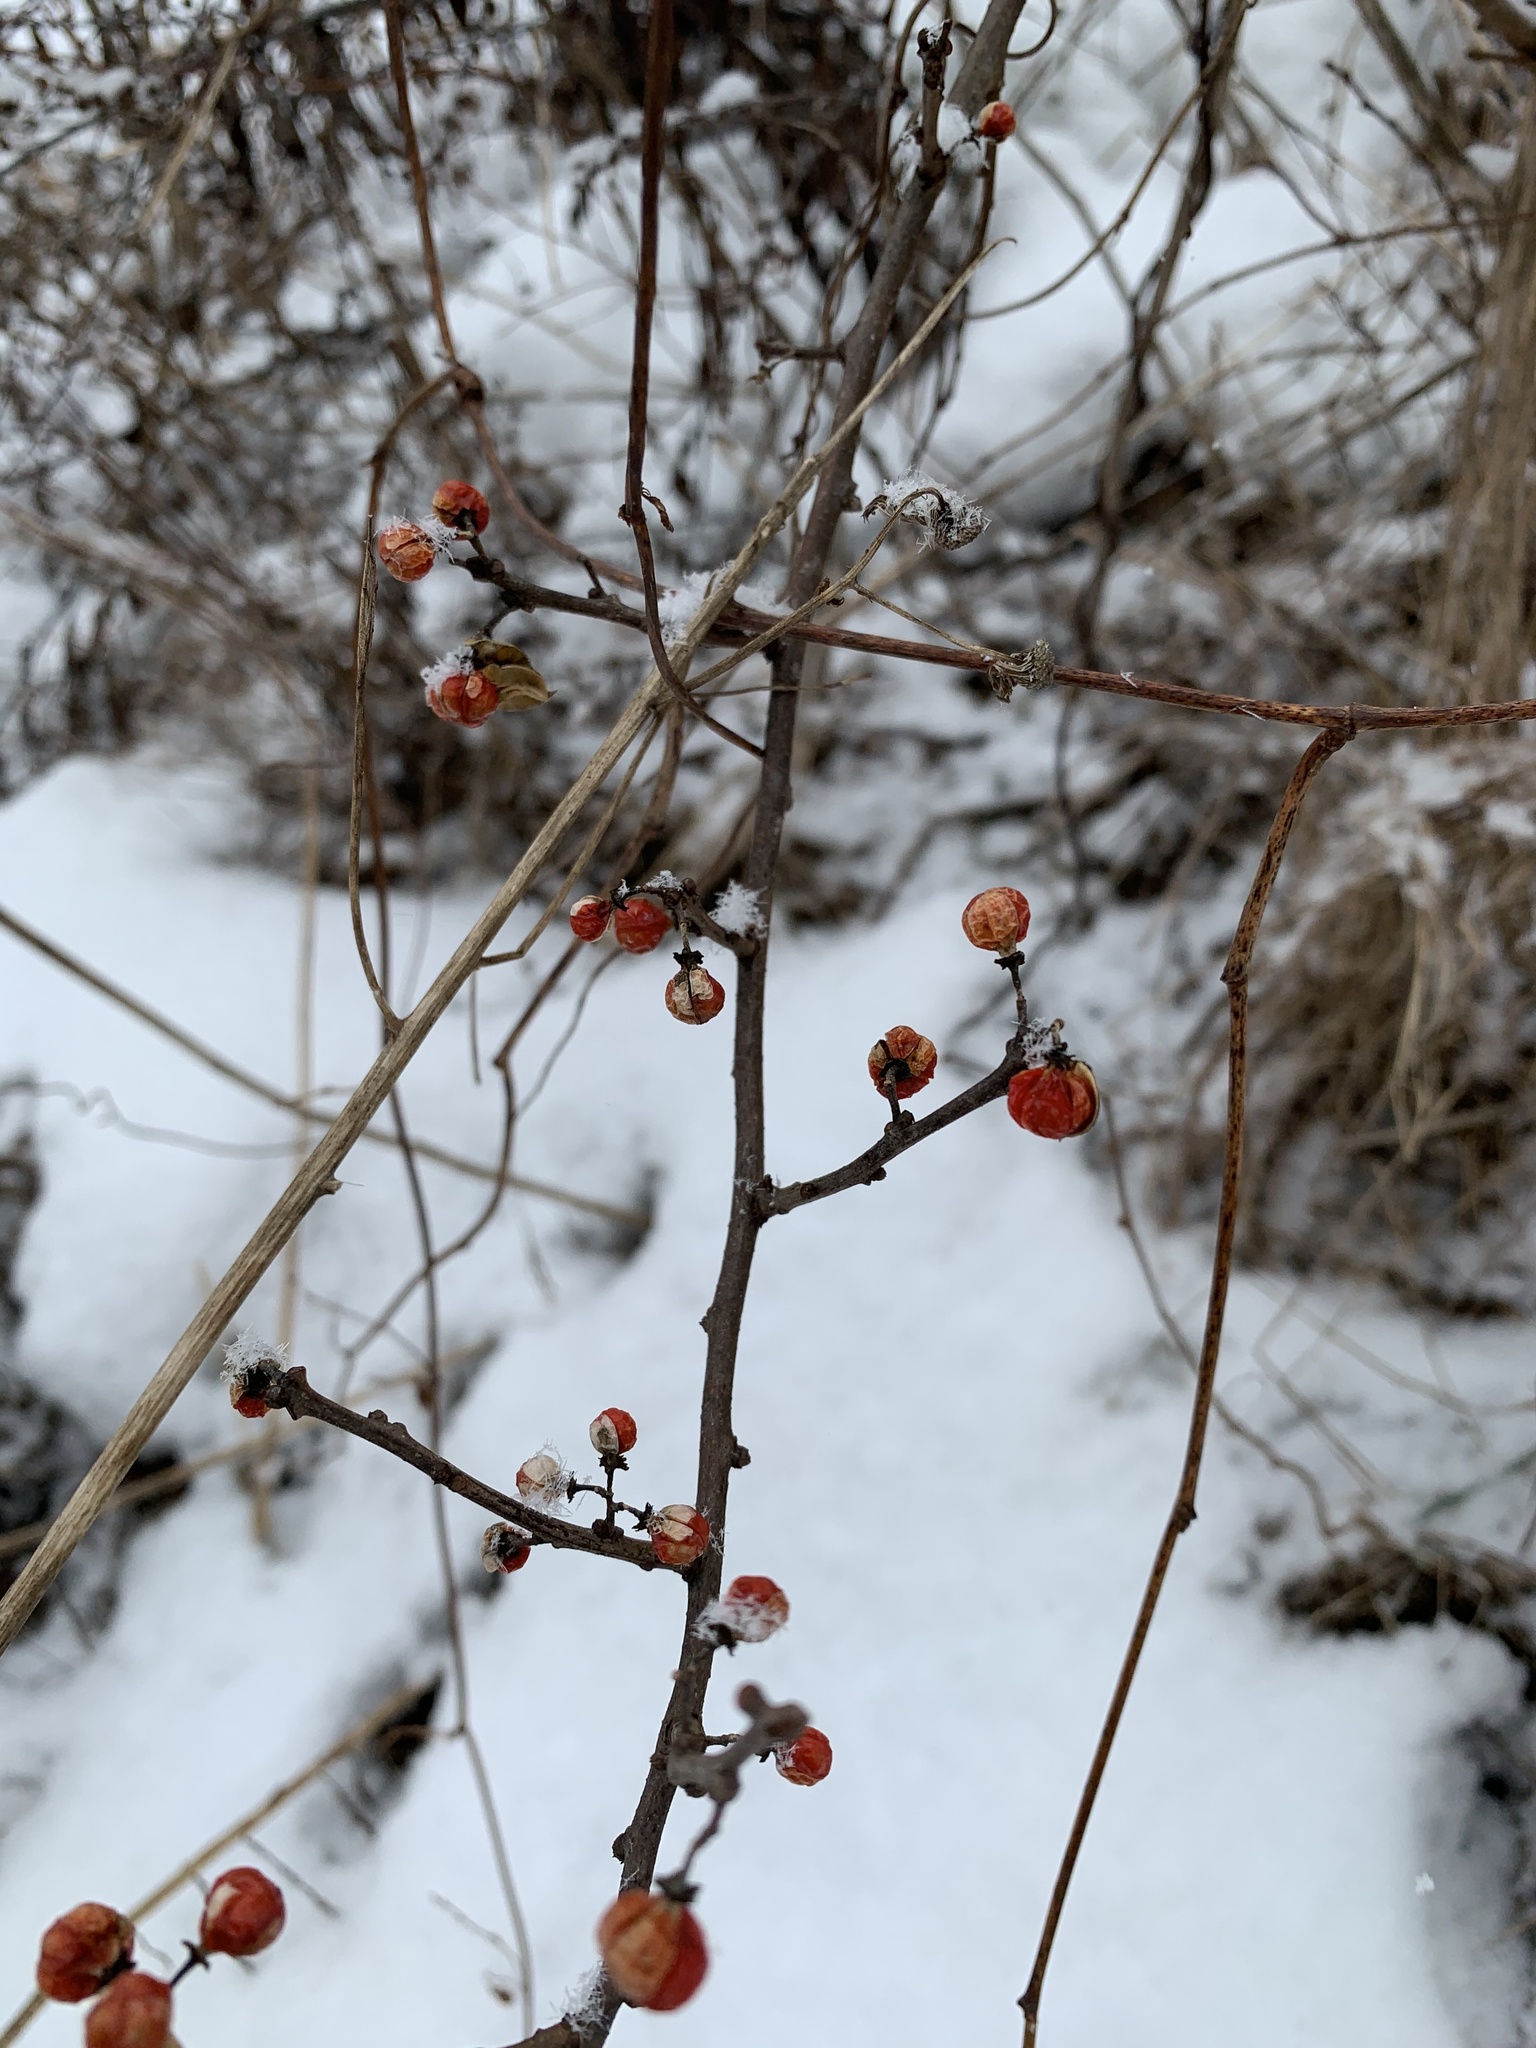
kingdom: Plantae
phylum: Tracheophyta
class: Magnoliopsida
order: Celastrales
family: Celastraceae
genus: Celastrus
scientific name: Celastrus orbiculatus
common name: Oriental bittersweet
